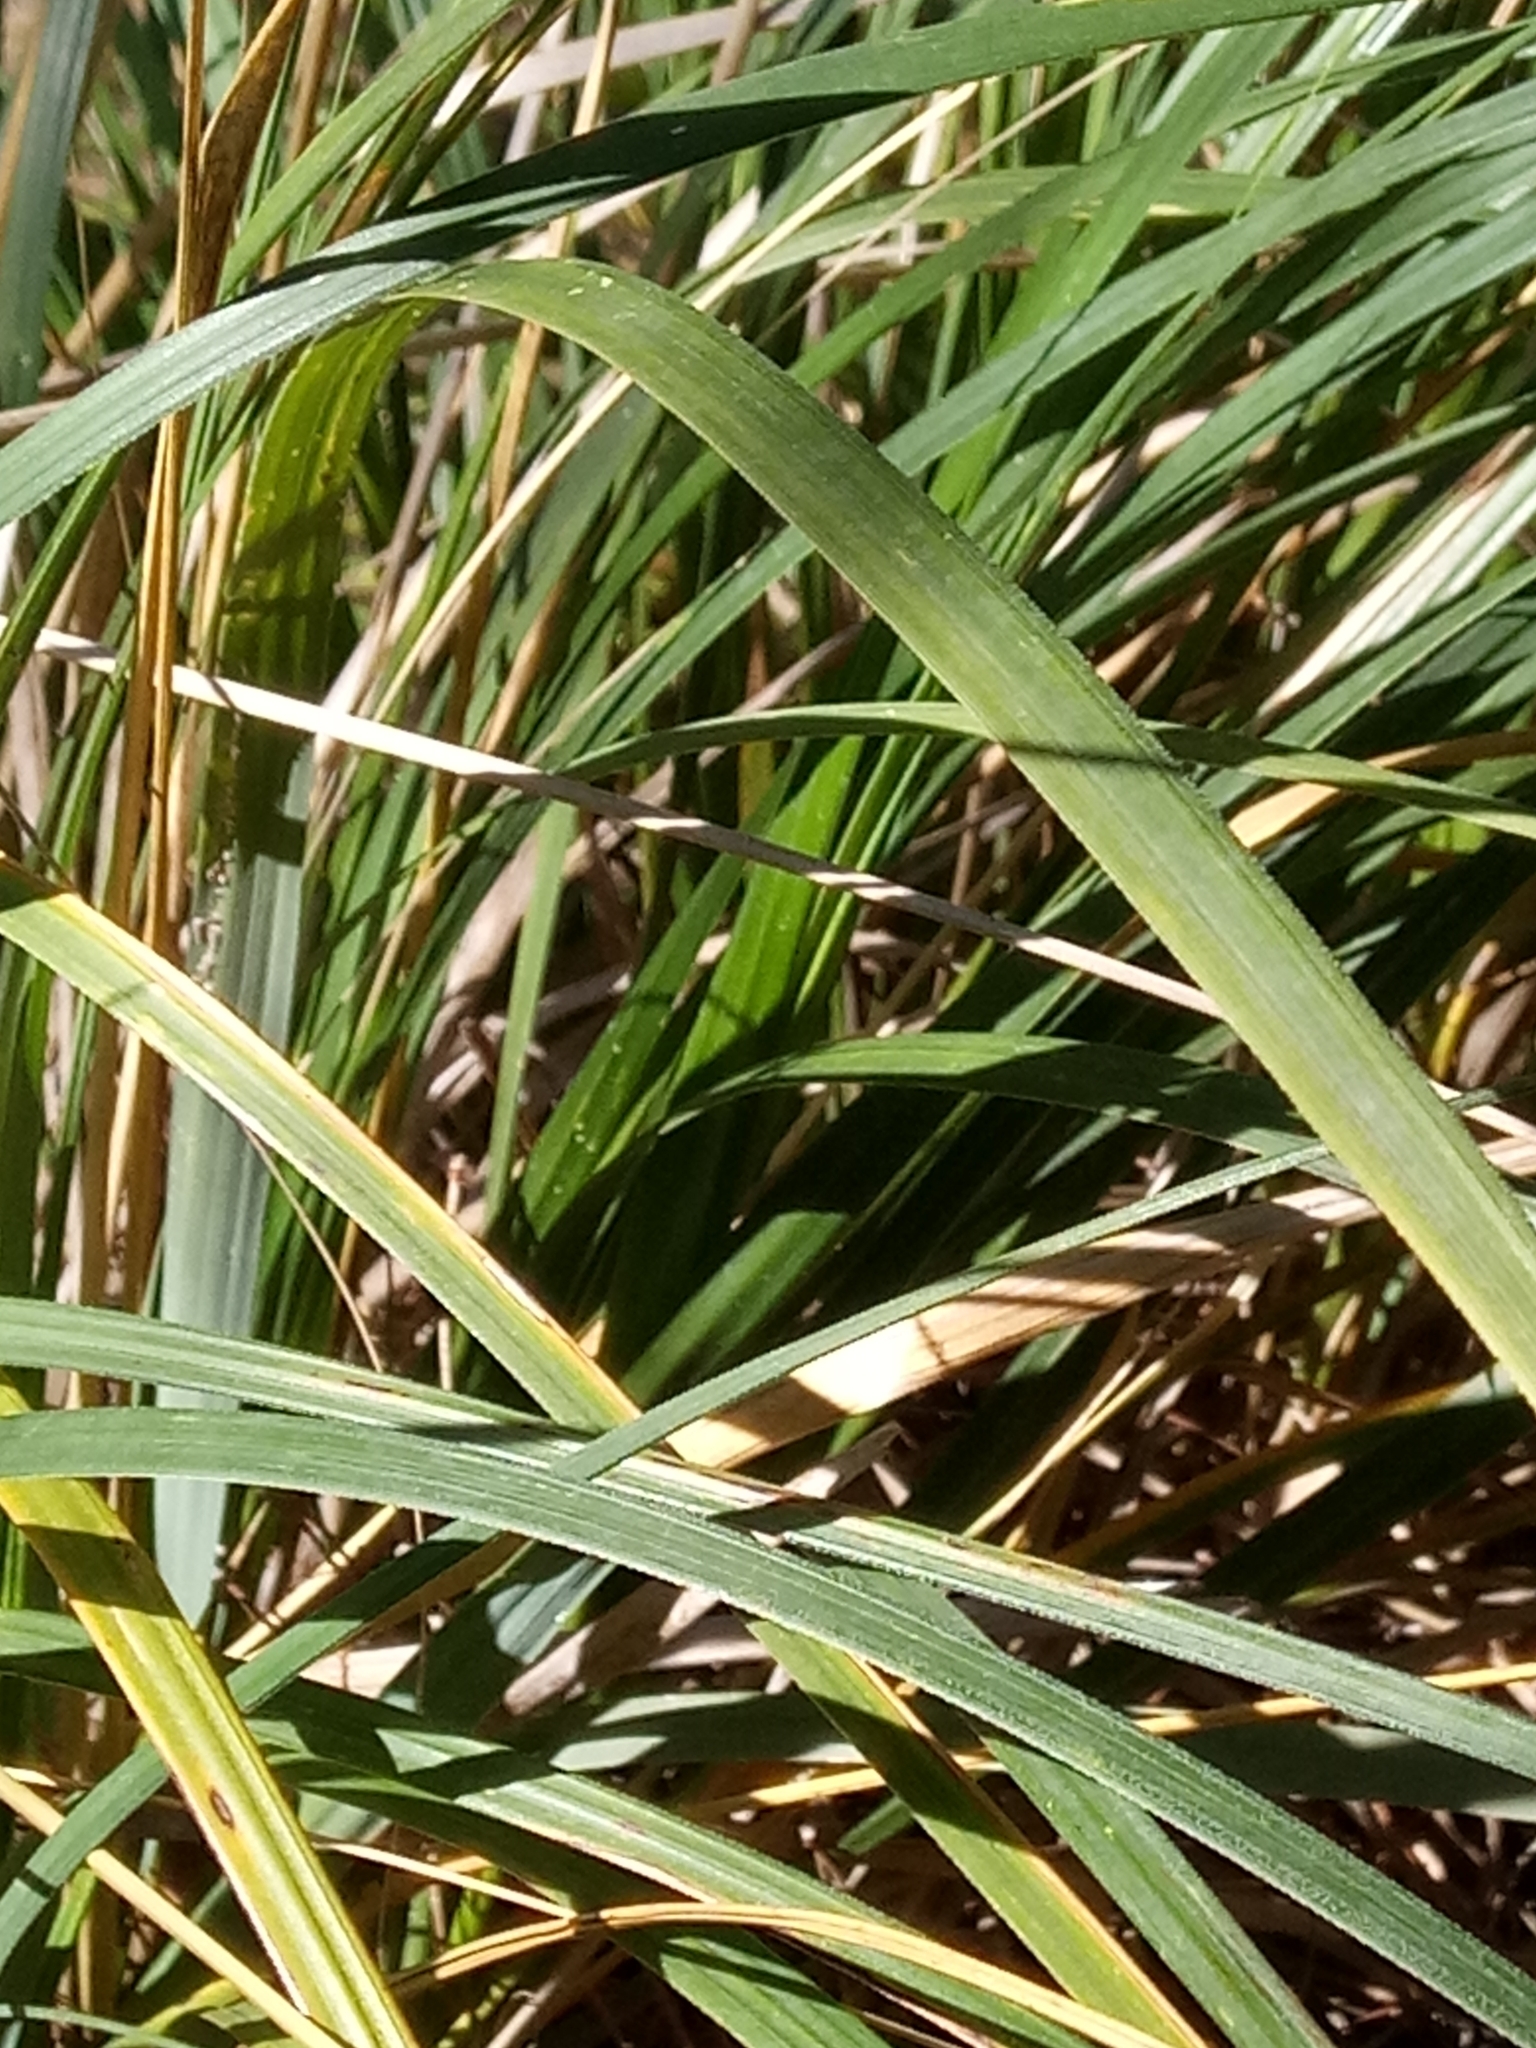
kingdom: Plantae
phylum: Tracheophyta
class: Liliopsida
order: Poales
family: Poaceae
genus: Ampelodesmos
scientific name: Ampelodesmos mauritanicus
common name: Mauritanian grass
